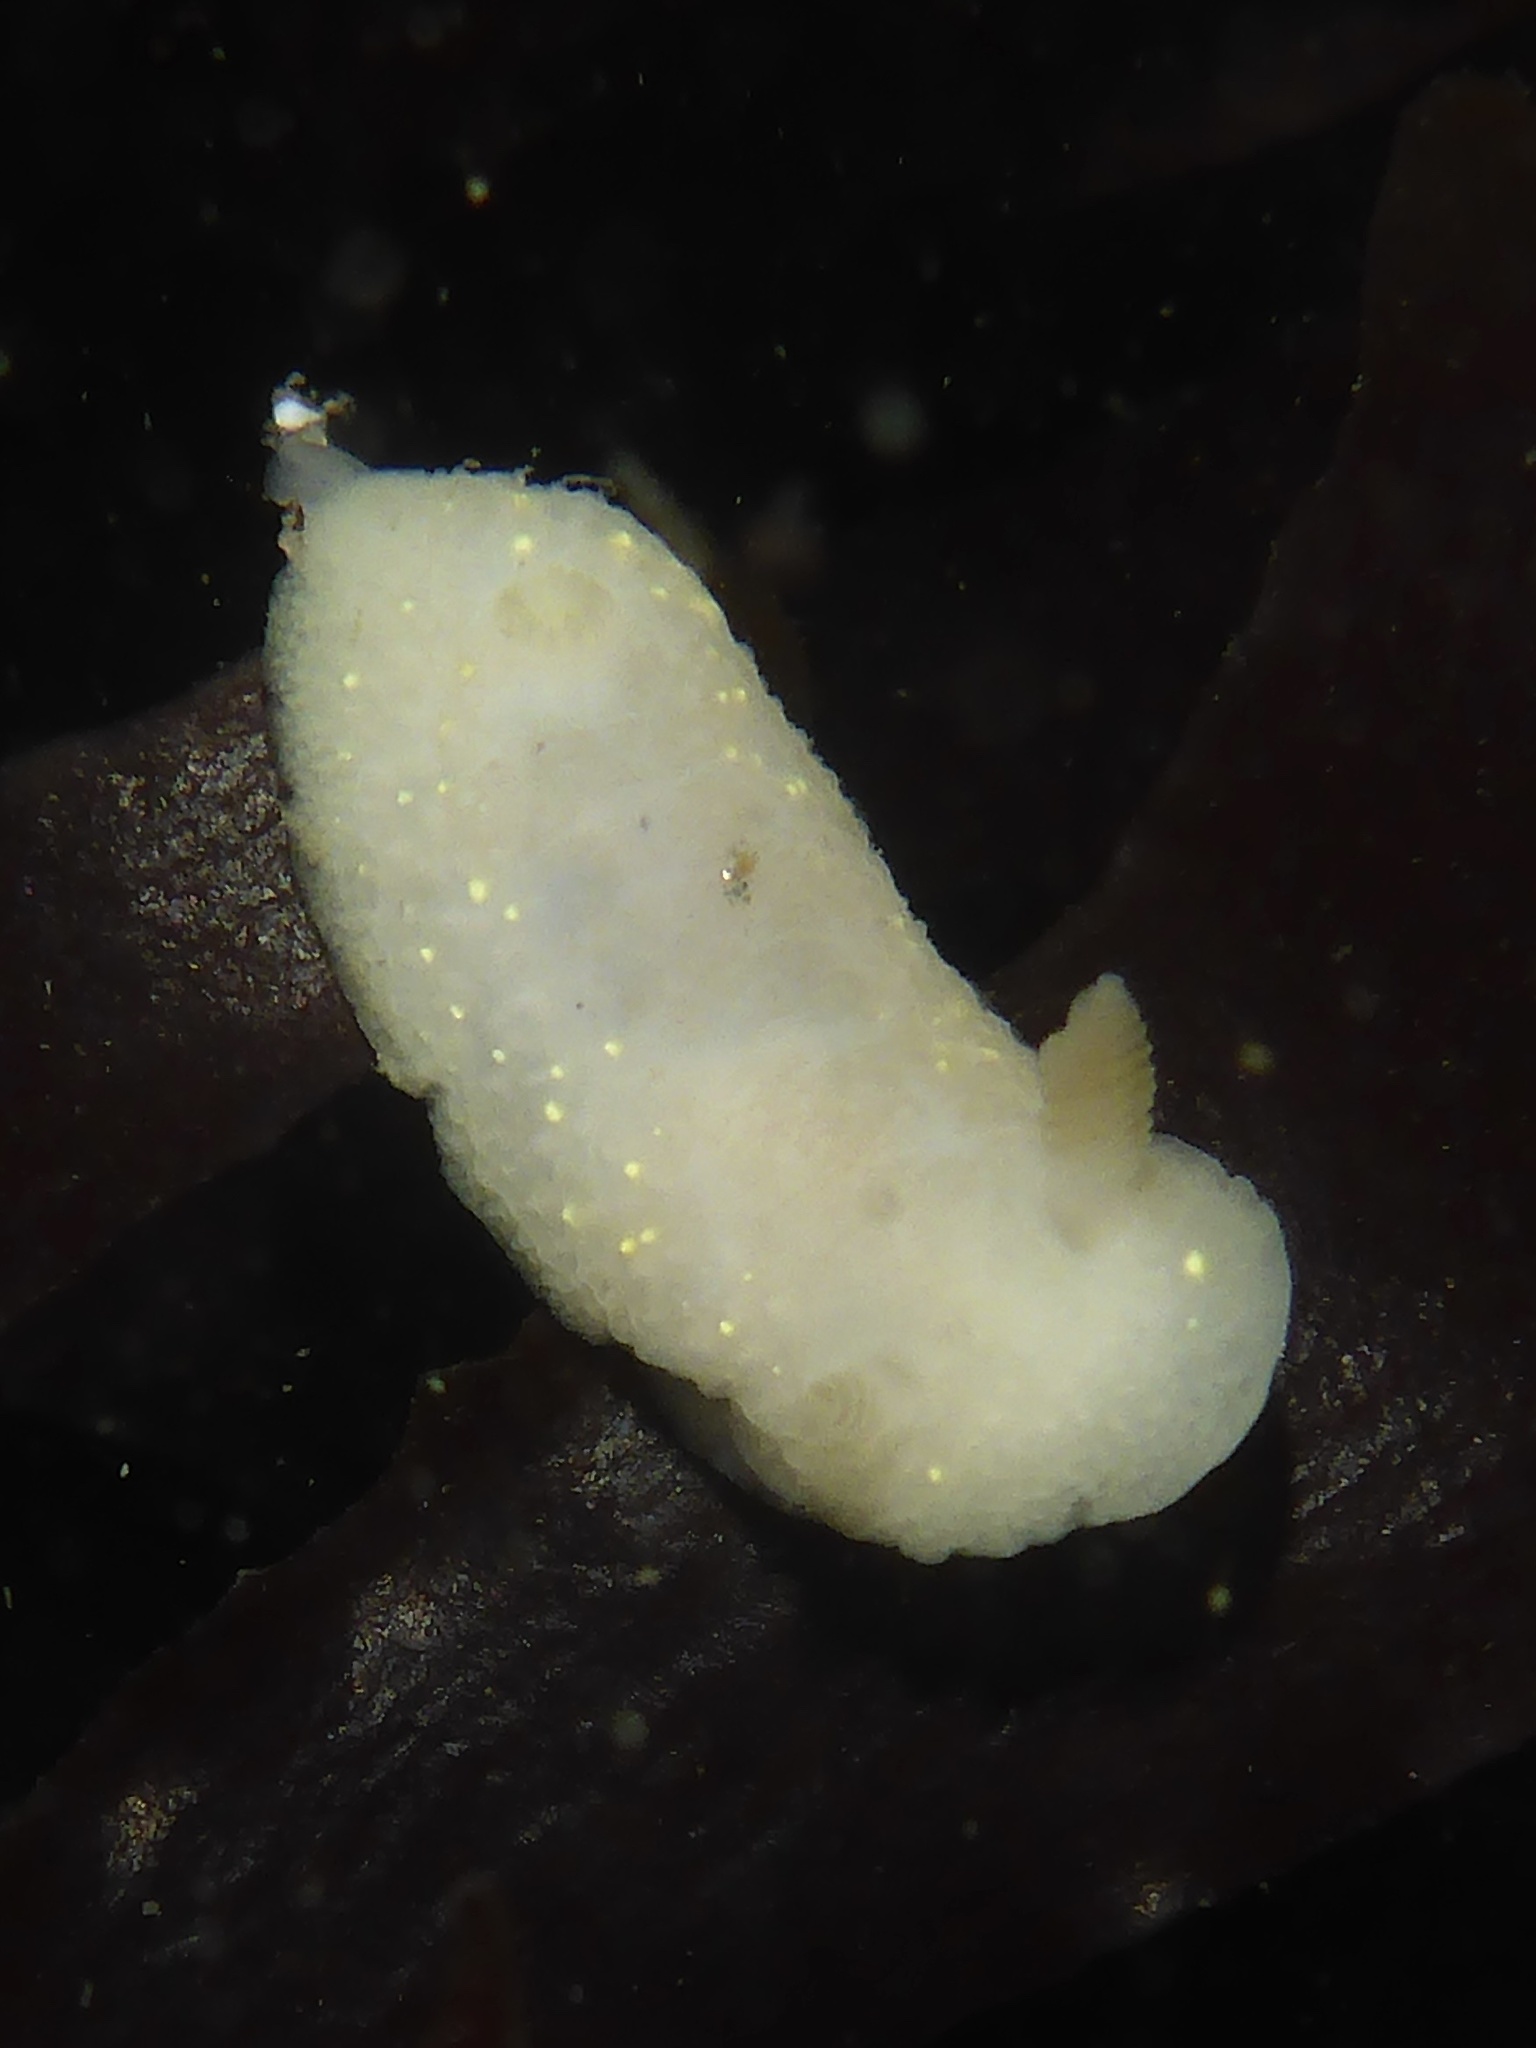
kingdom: Animalia
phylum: Mollusca
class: Gastropoda
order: Nudibranchia
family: Cadlinidae
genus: Cadlina
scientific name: Cadlina modesta
